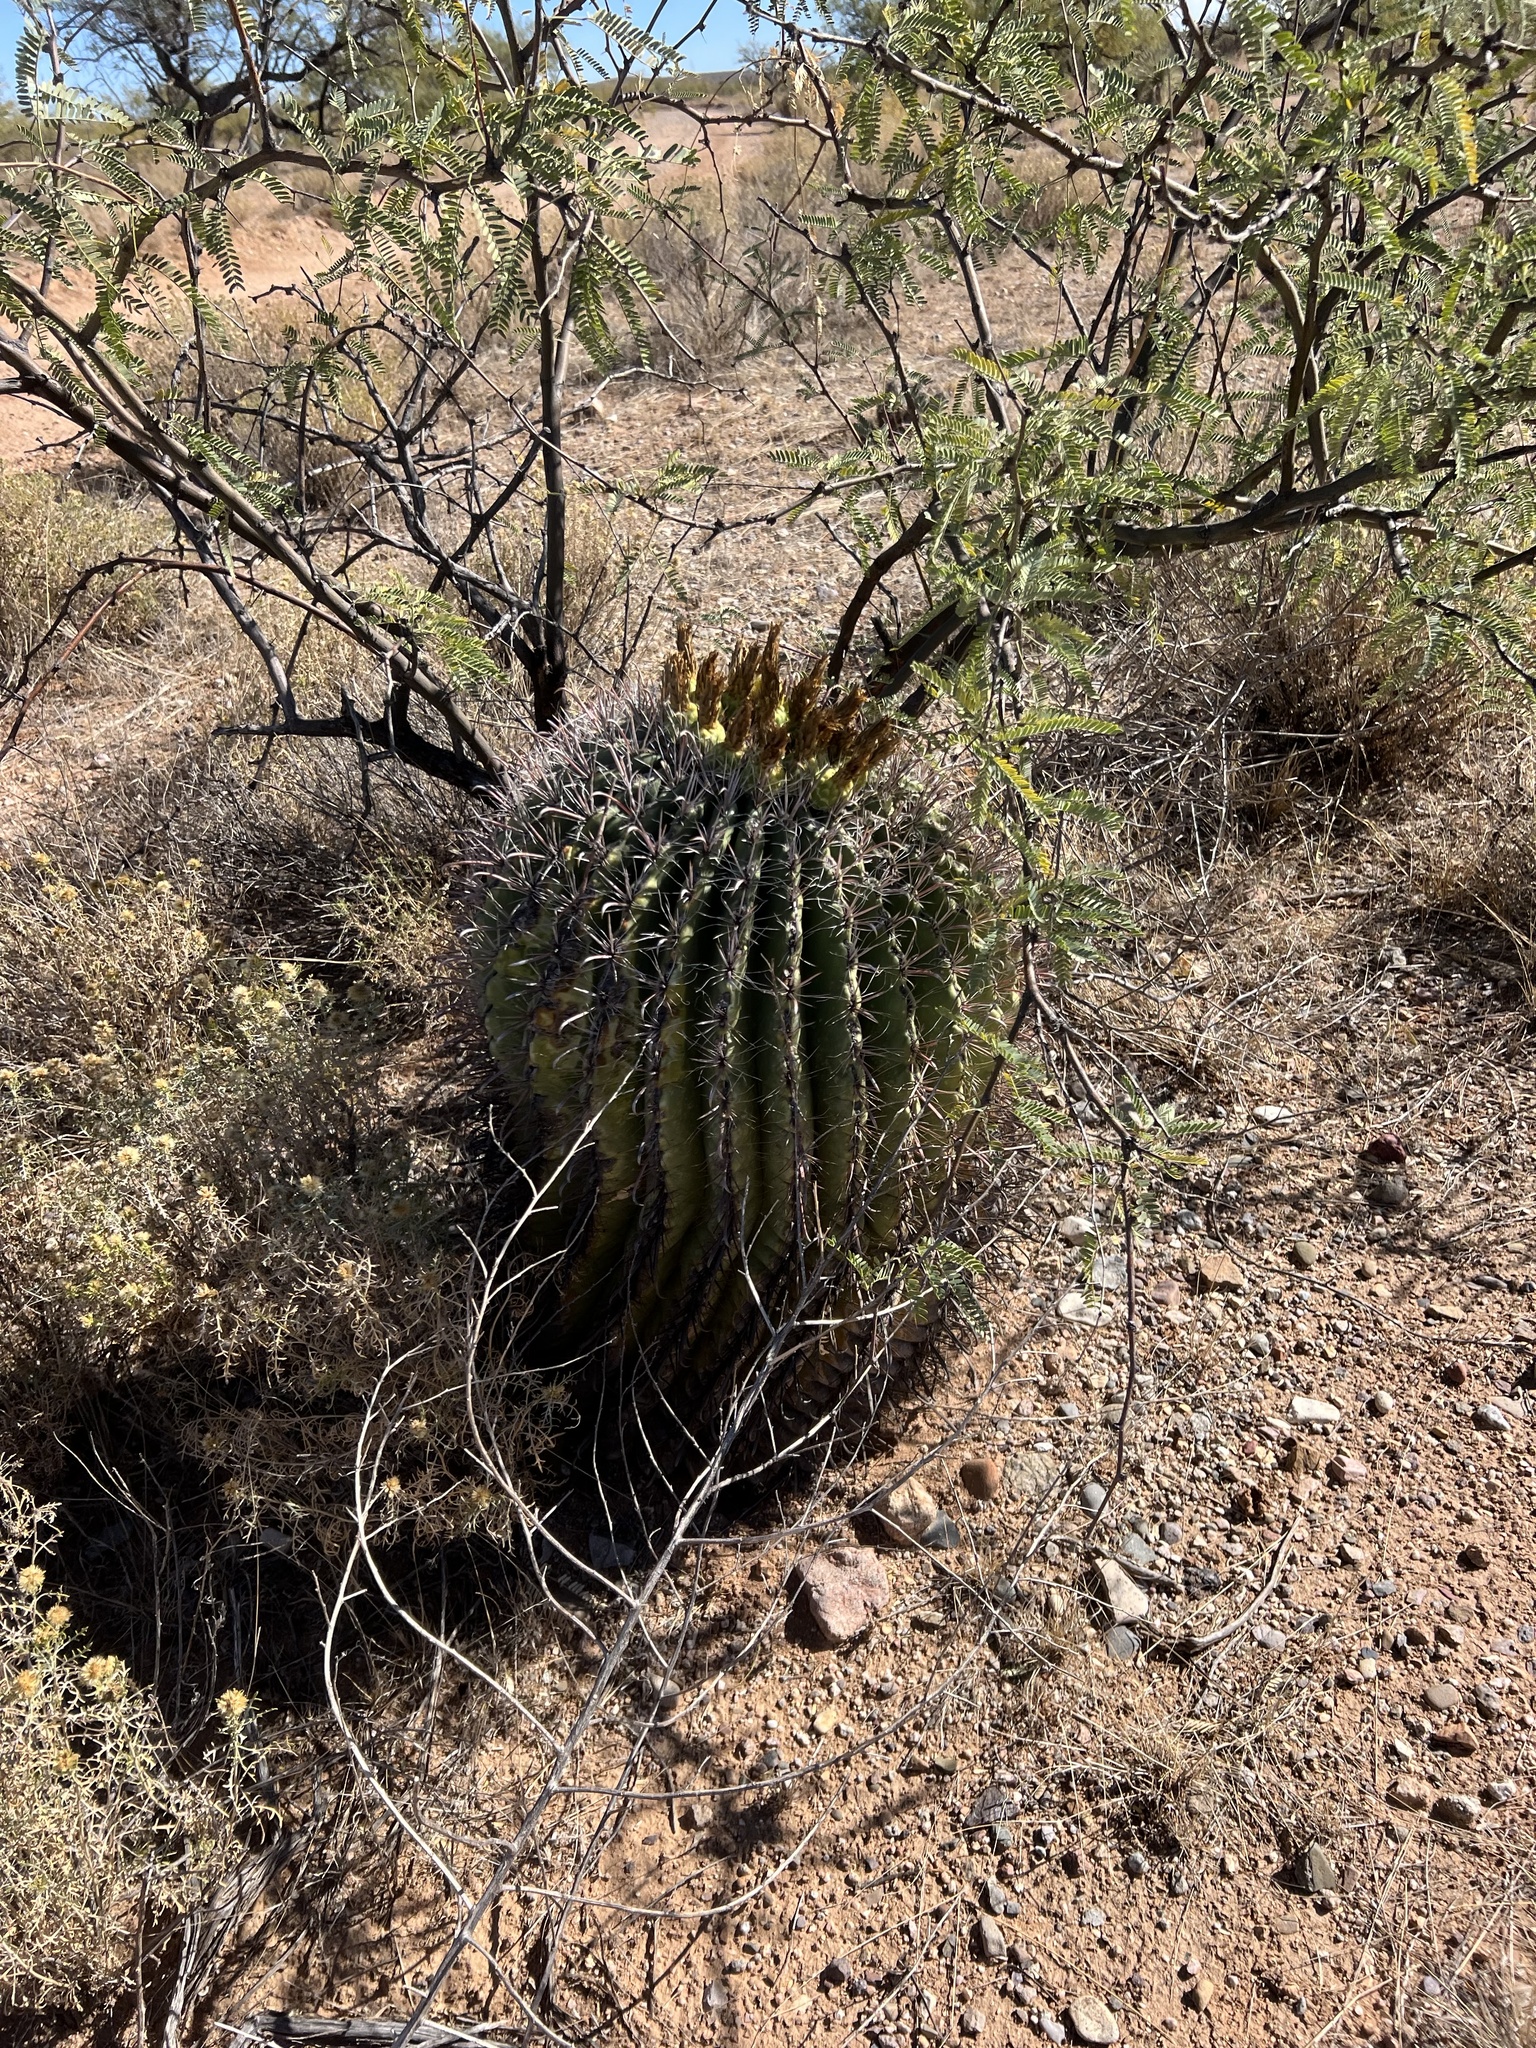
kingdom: Plantae
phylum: Tracheophyta
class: Magnoliopsida
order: Caryophyllales
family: Cactaceae
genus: Ferocactus
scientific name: Ferocactus wislizeni
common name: Candy barrel cactus
